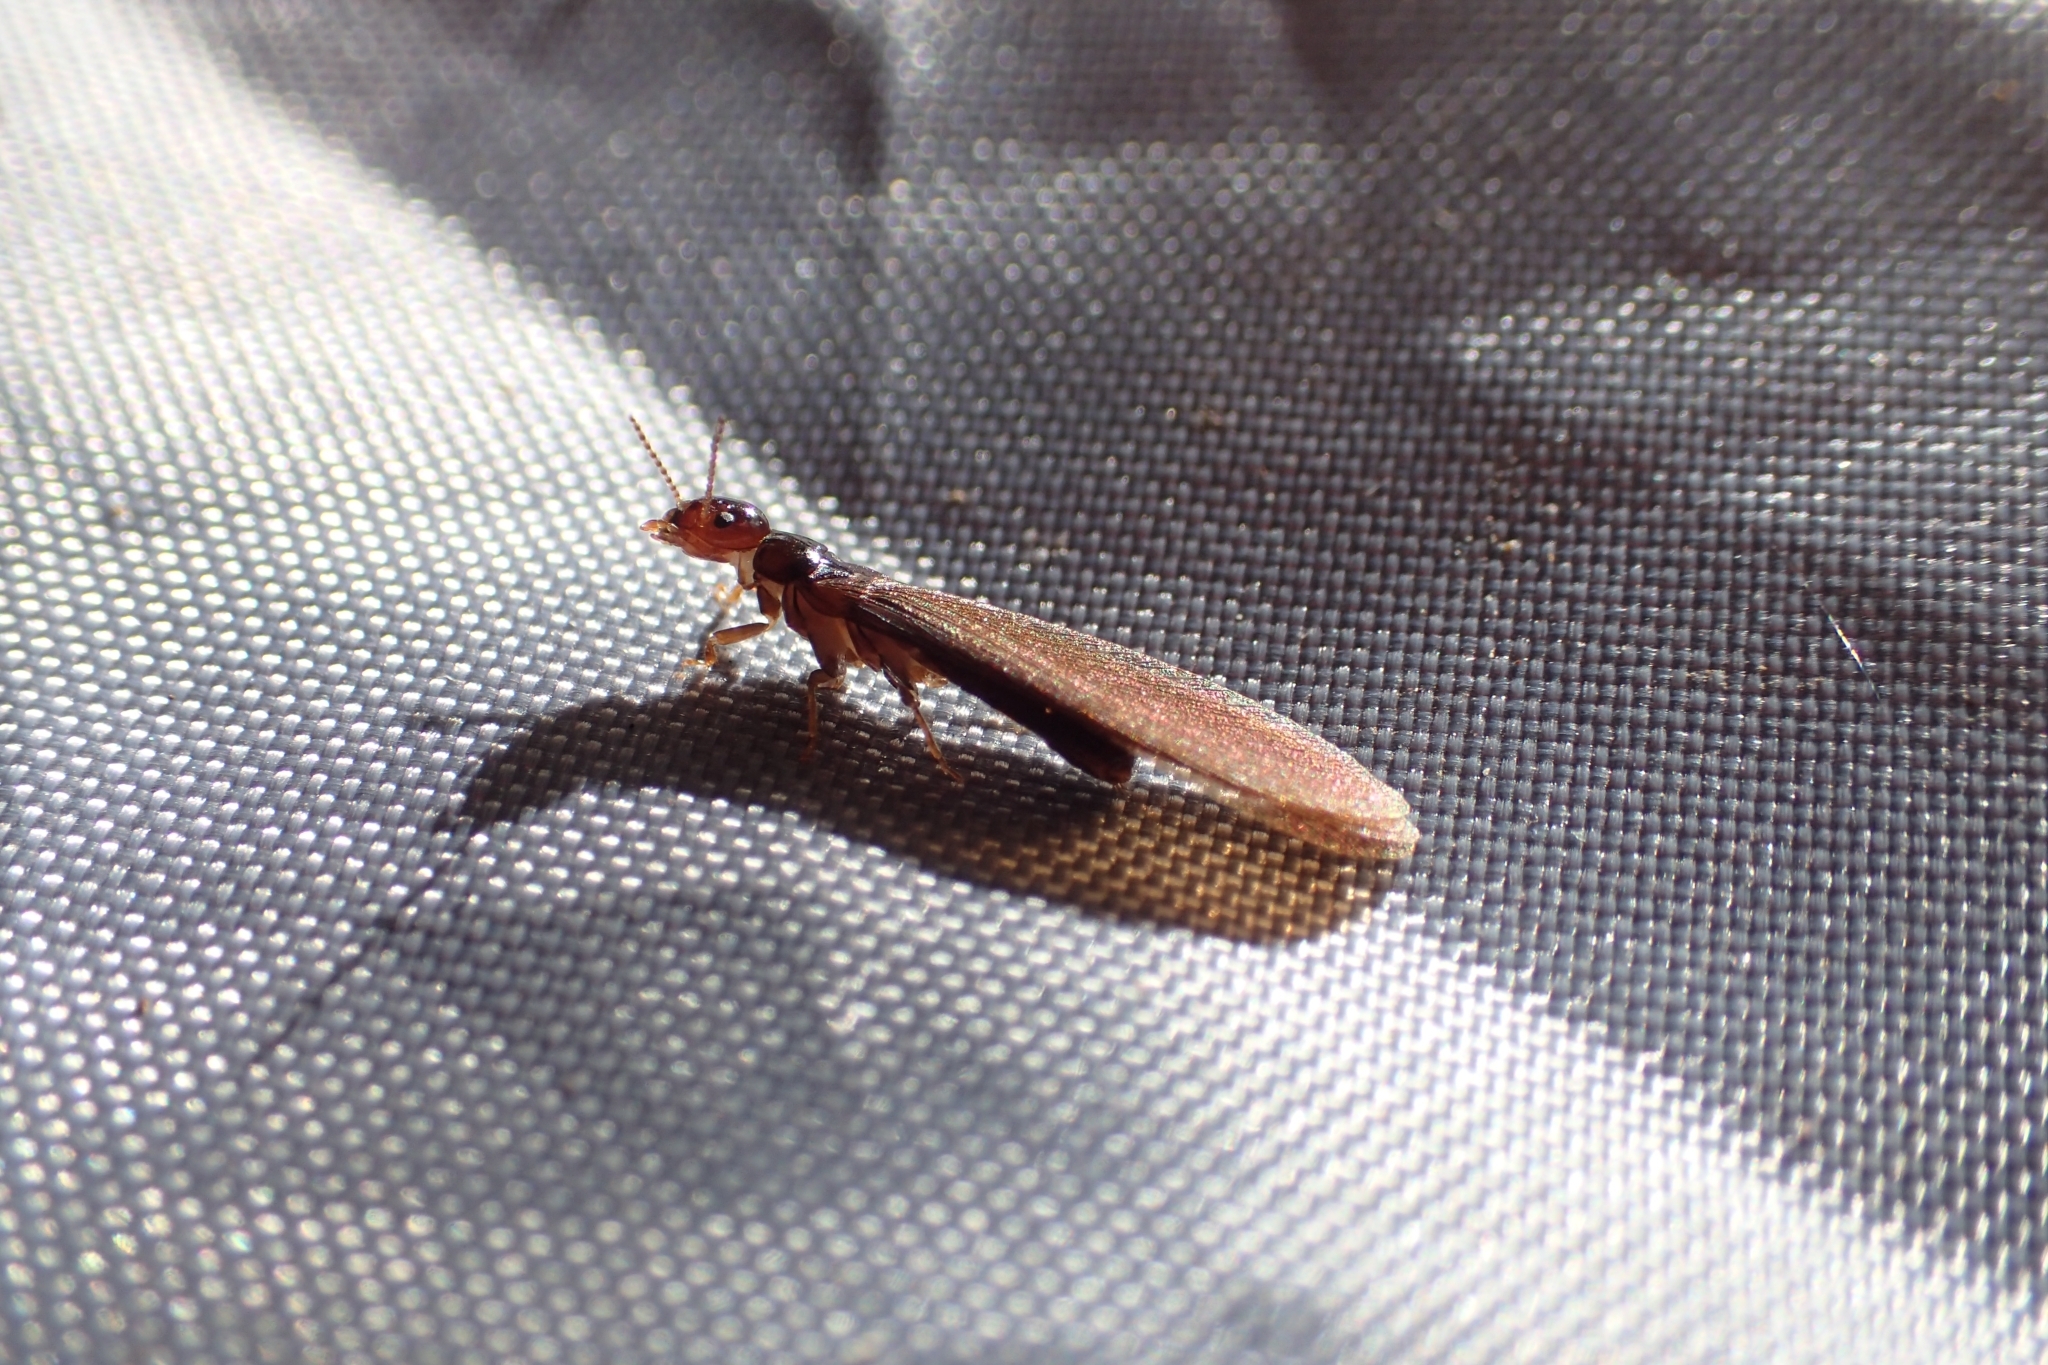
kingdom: Animalia
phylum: Arthropoda
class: Insecta
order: Blattodea
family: Kalotermitidae
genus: Kalotermes
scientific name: Kalotermes brouni
